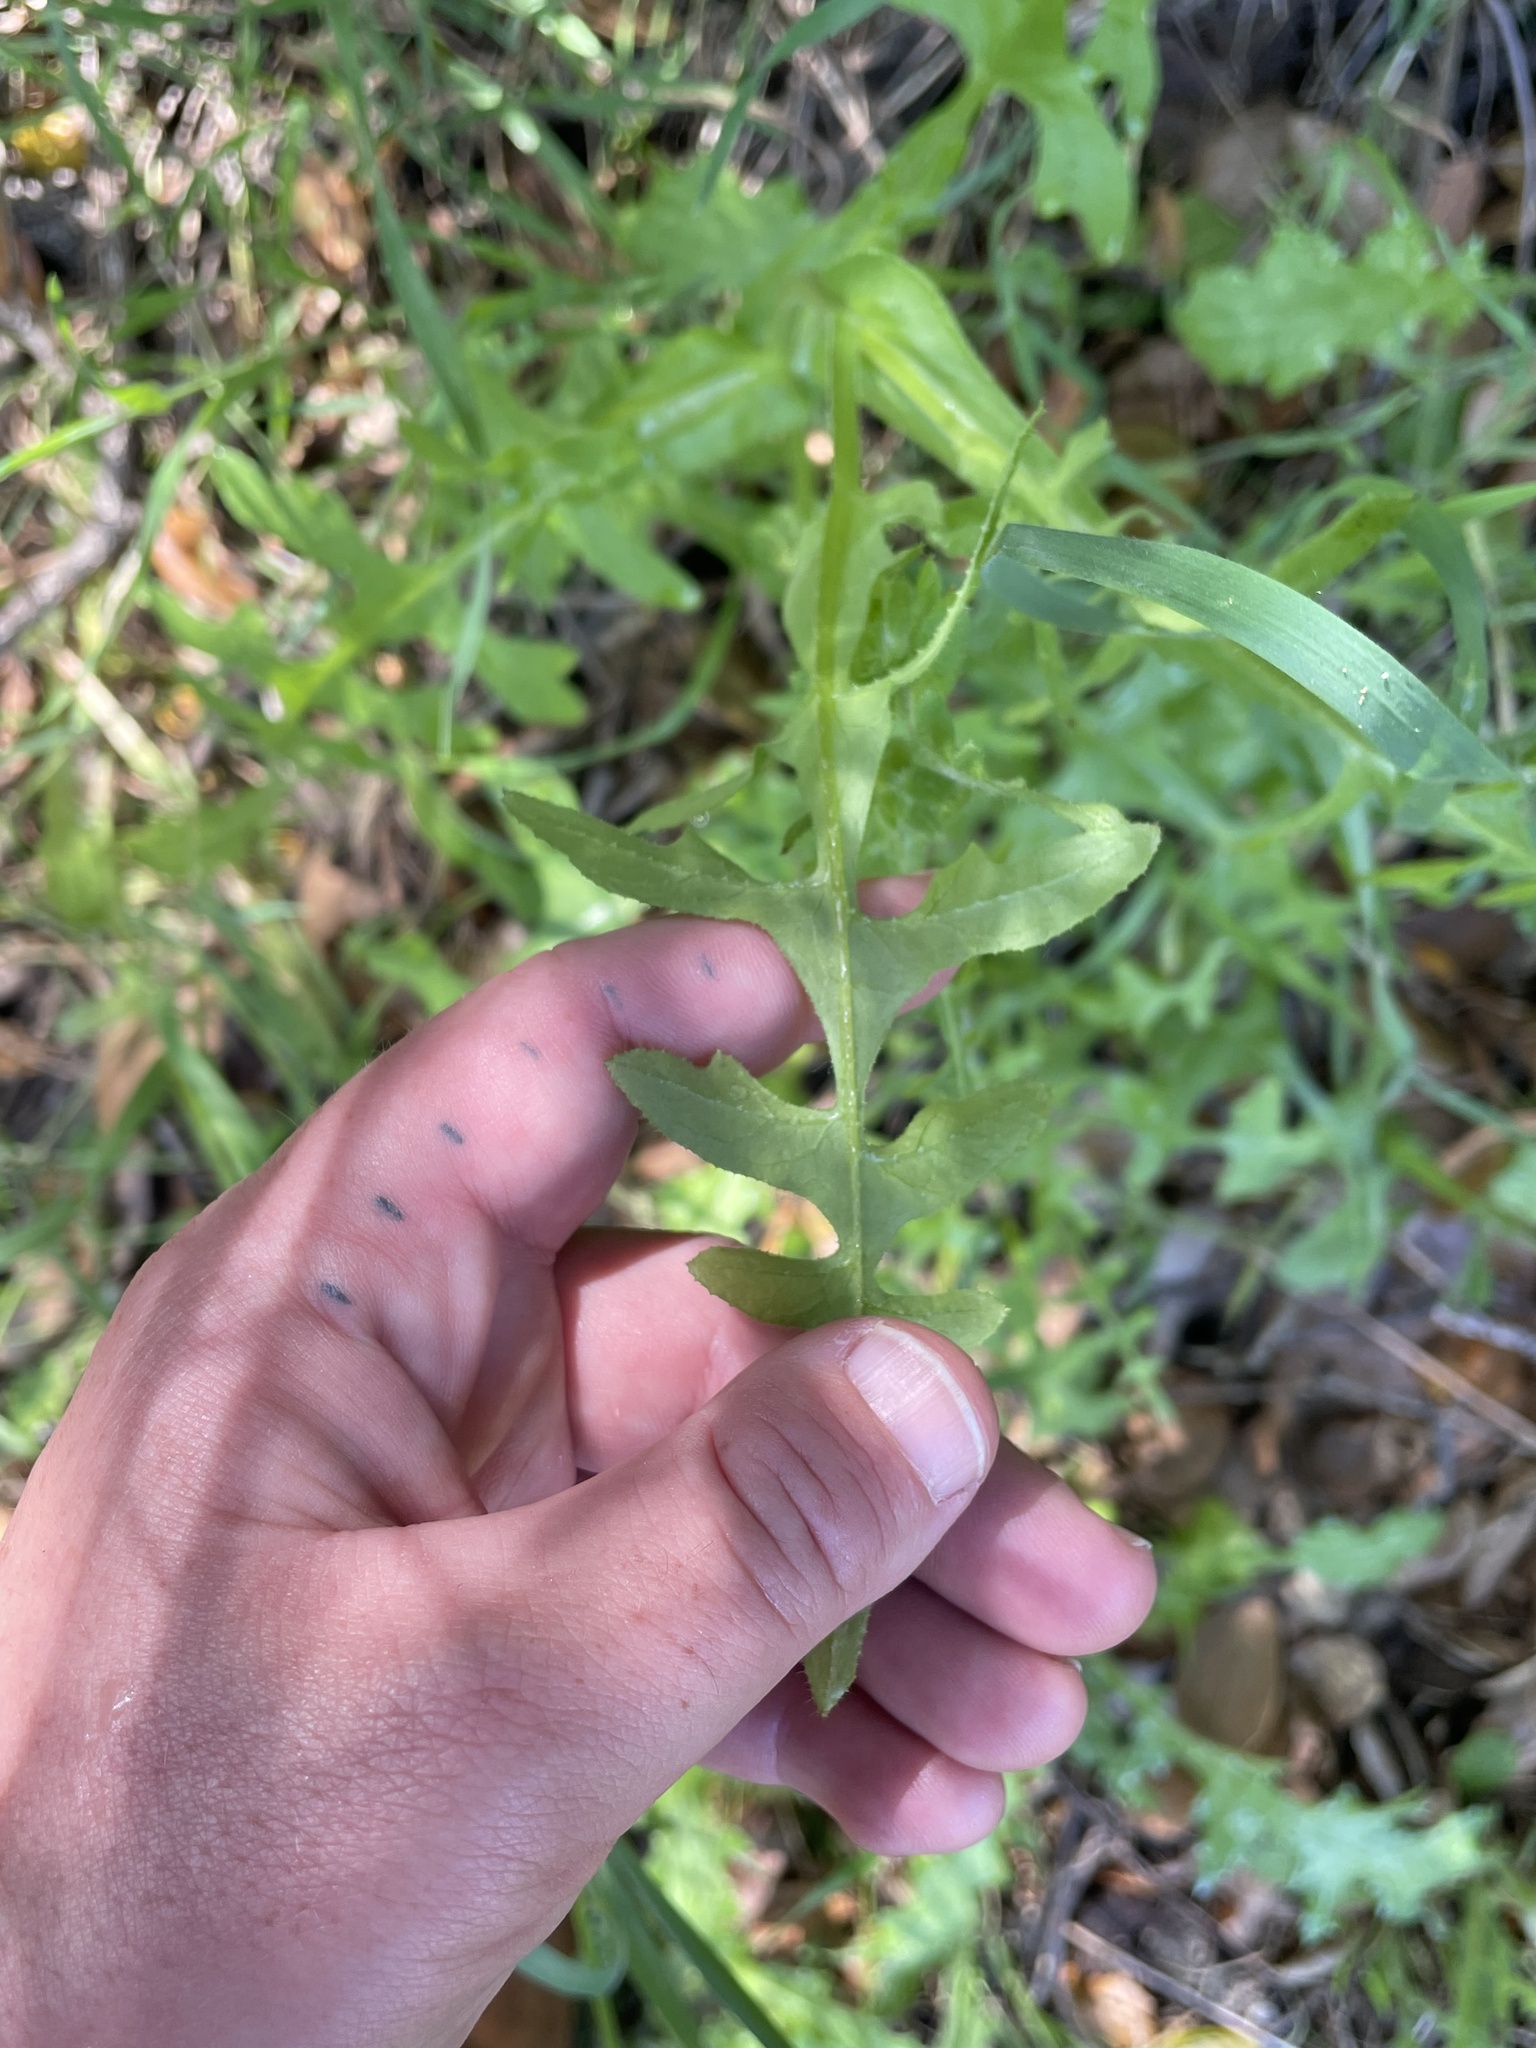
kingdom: Plantae
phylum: Tracheophyta
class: Magnoliopsida
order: Boraginales
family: Hydrophyllaceae
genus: Pholistoma
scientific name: Pholistoma auritum
